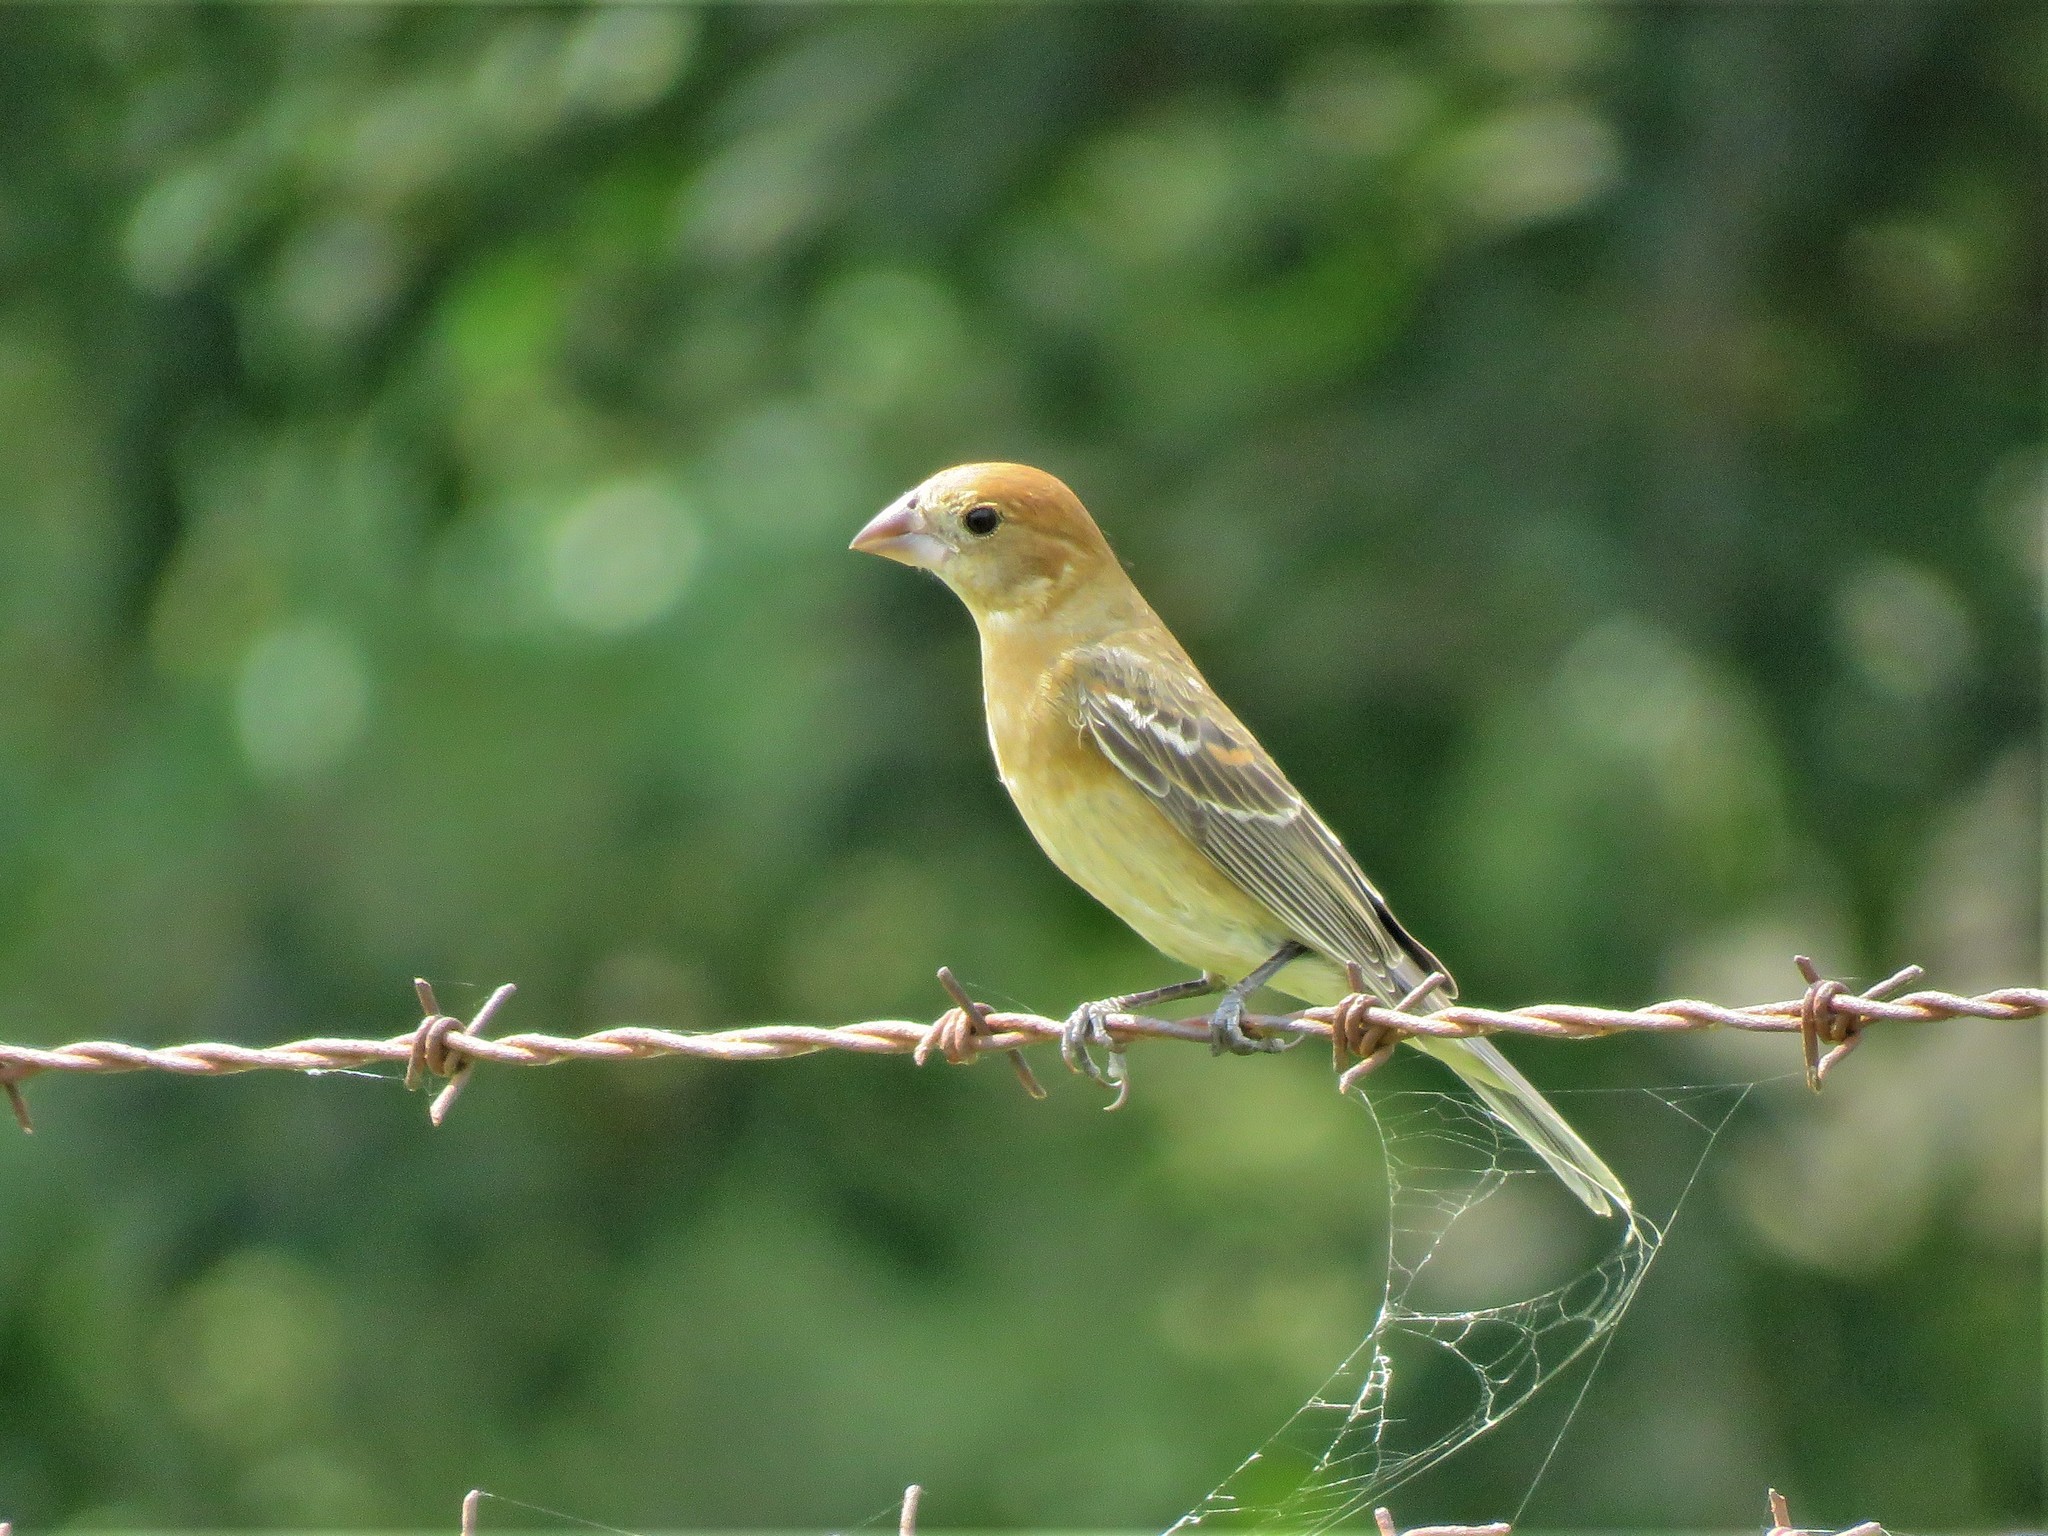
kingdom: Animalia
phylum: Chordata
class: Aves
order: Passeriformes
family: Cardinalidae
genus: Passerina
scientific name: Passerina caerulea
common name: Blue grosbeak
